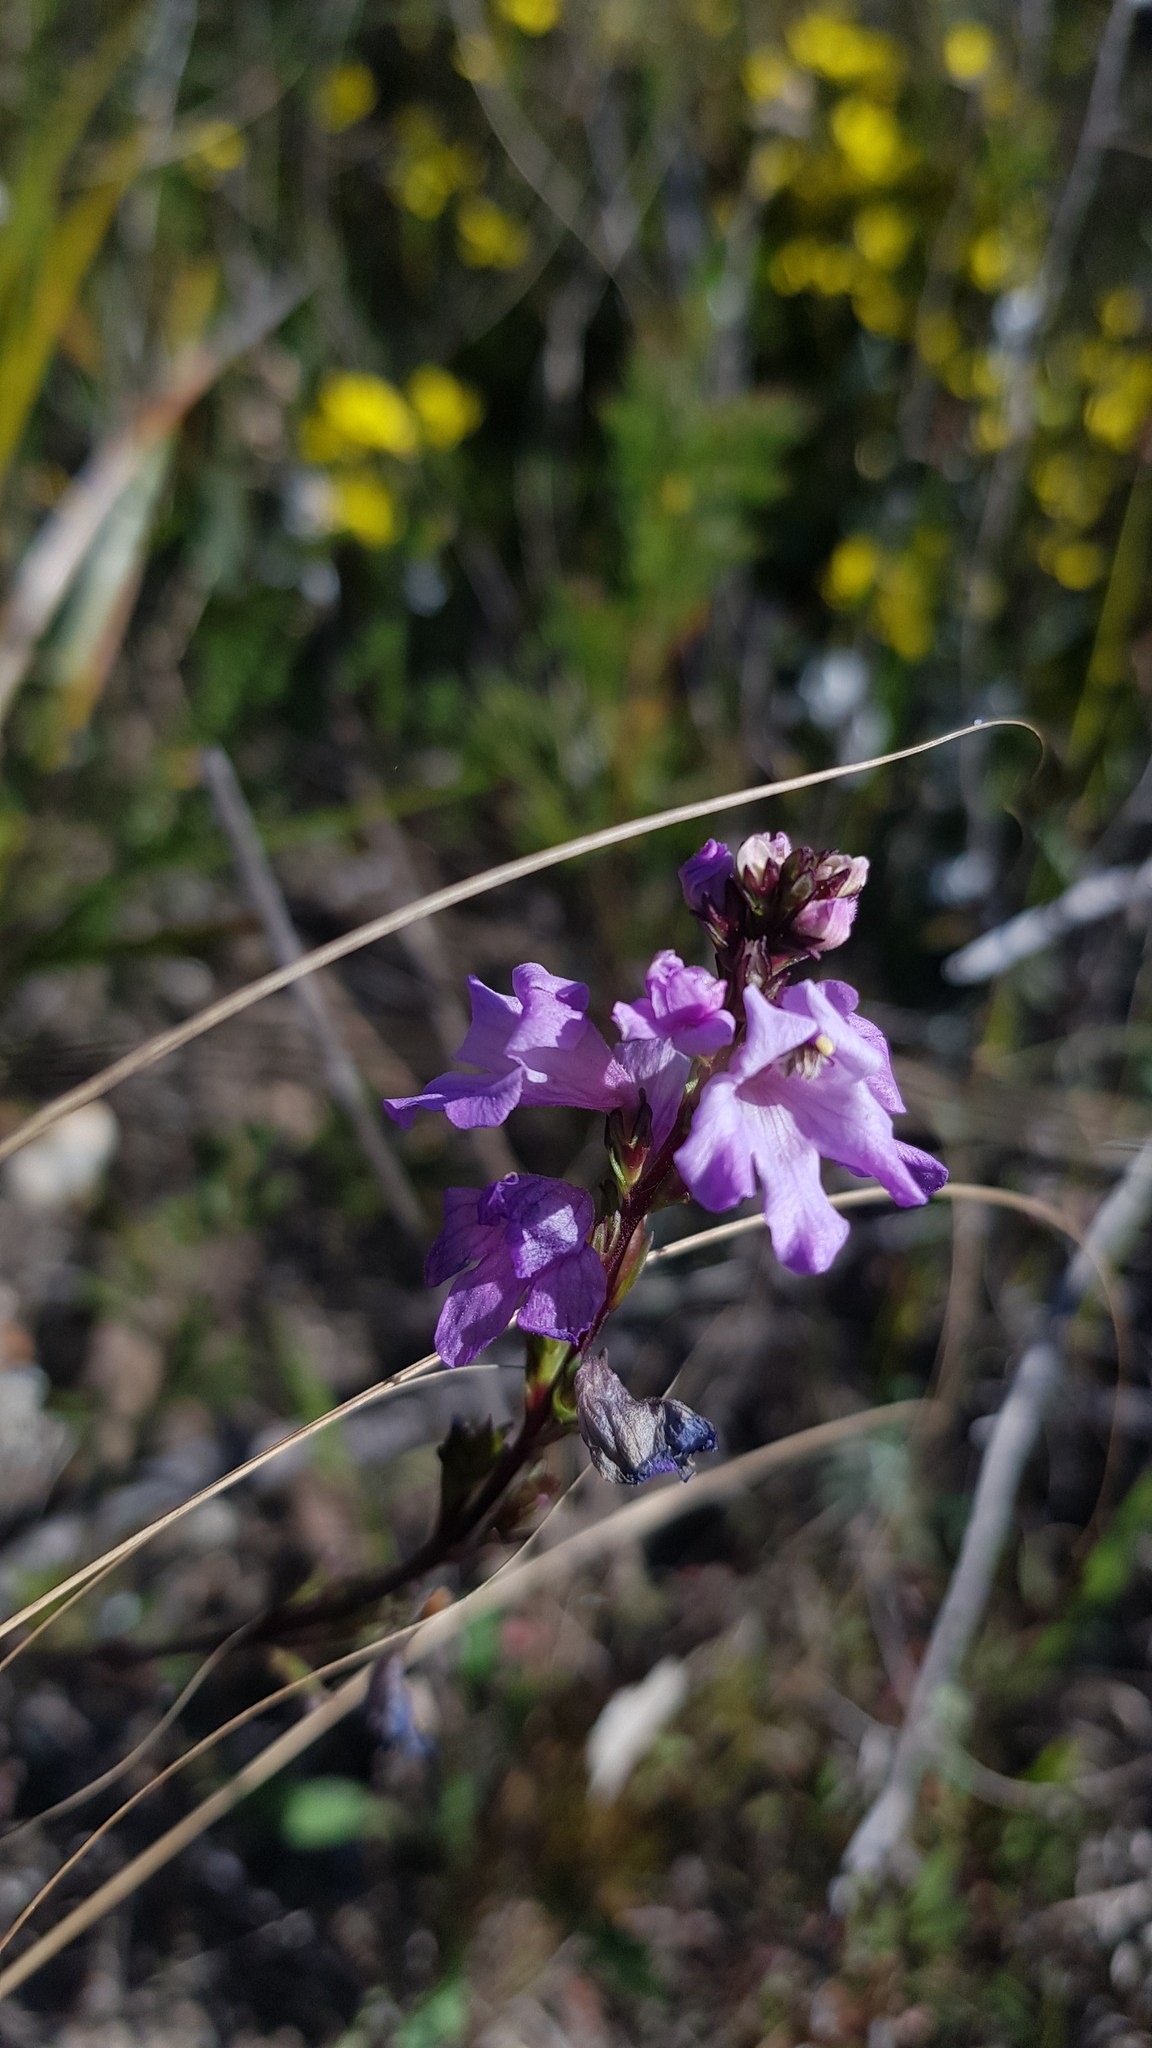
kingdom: Plantae
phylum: Tracheophyta
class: Magnoliopsida
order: Lamiales
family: Orobanchaceae
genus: Euphrasia
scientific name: Euphrasia collina
